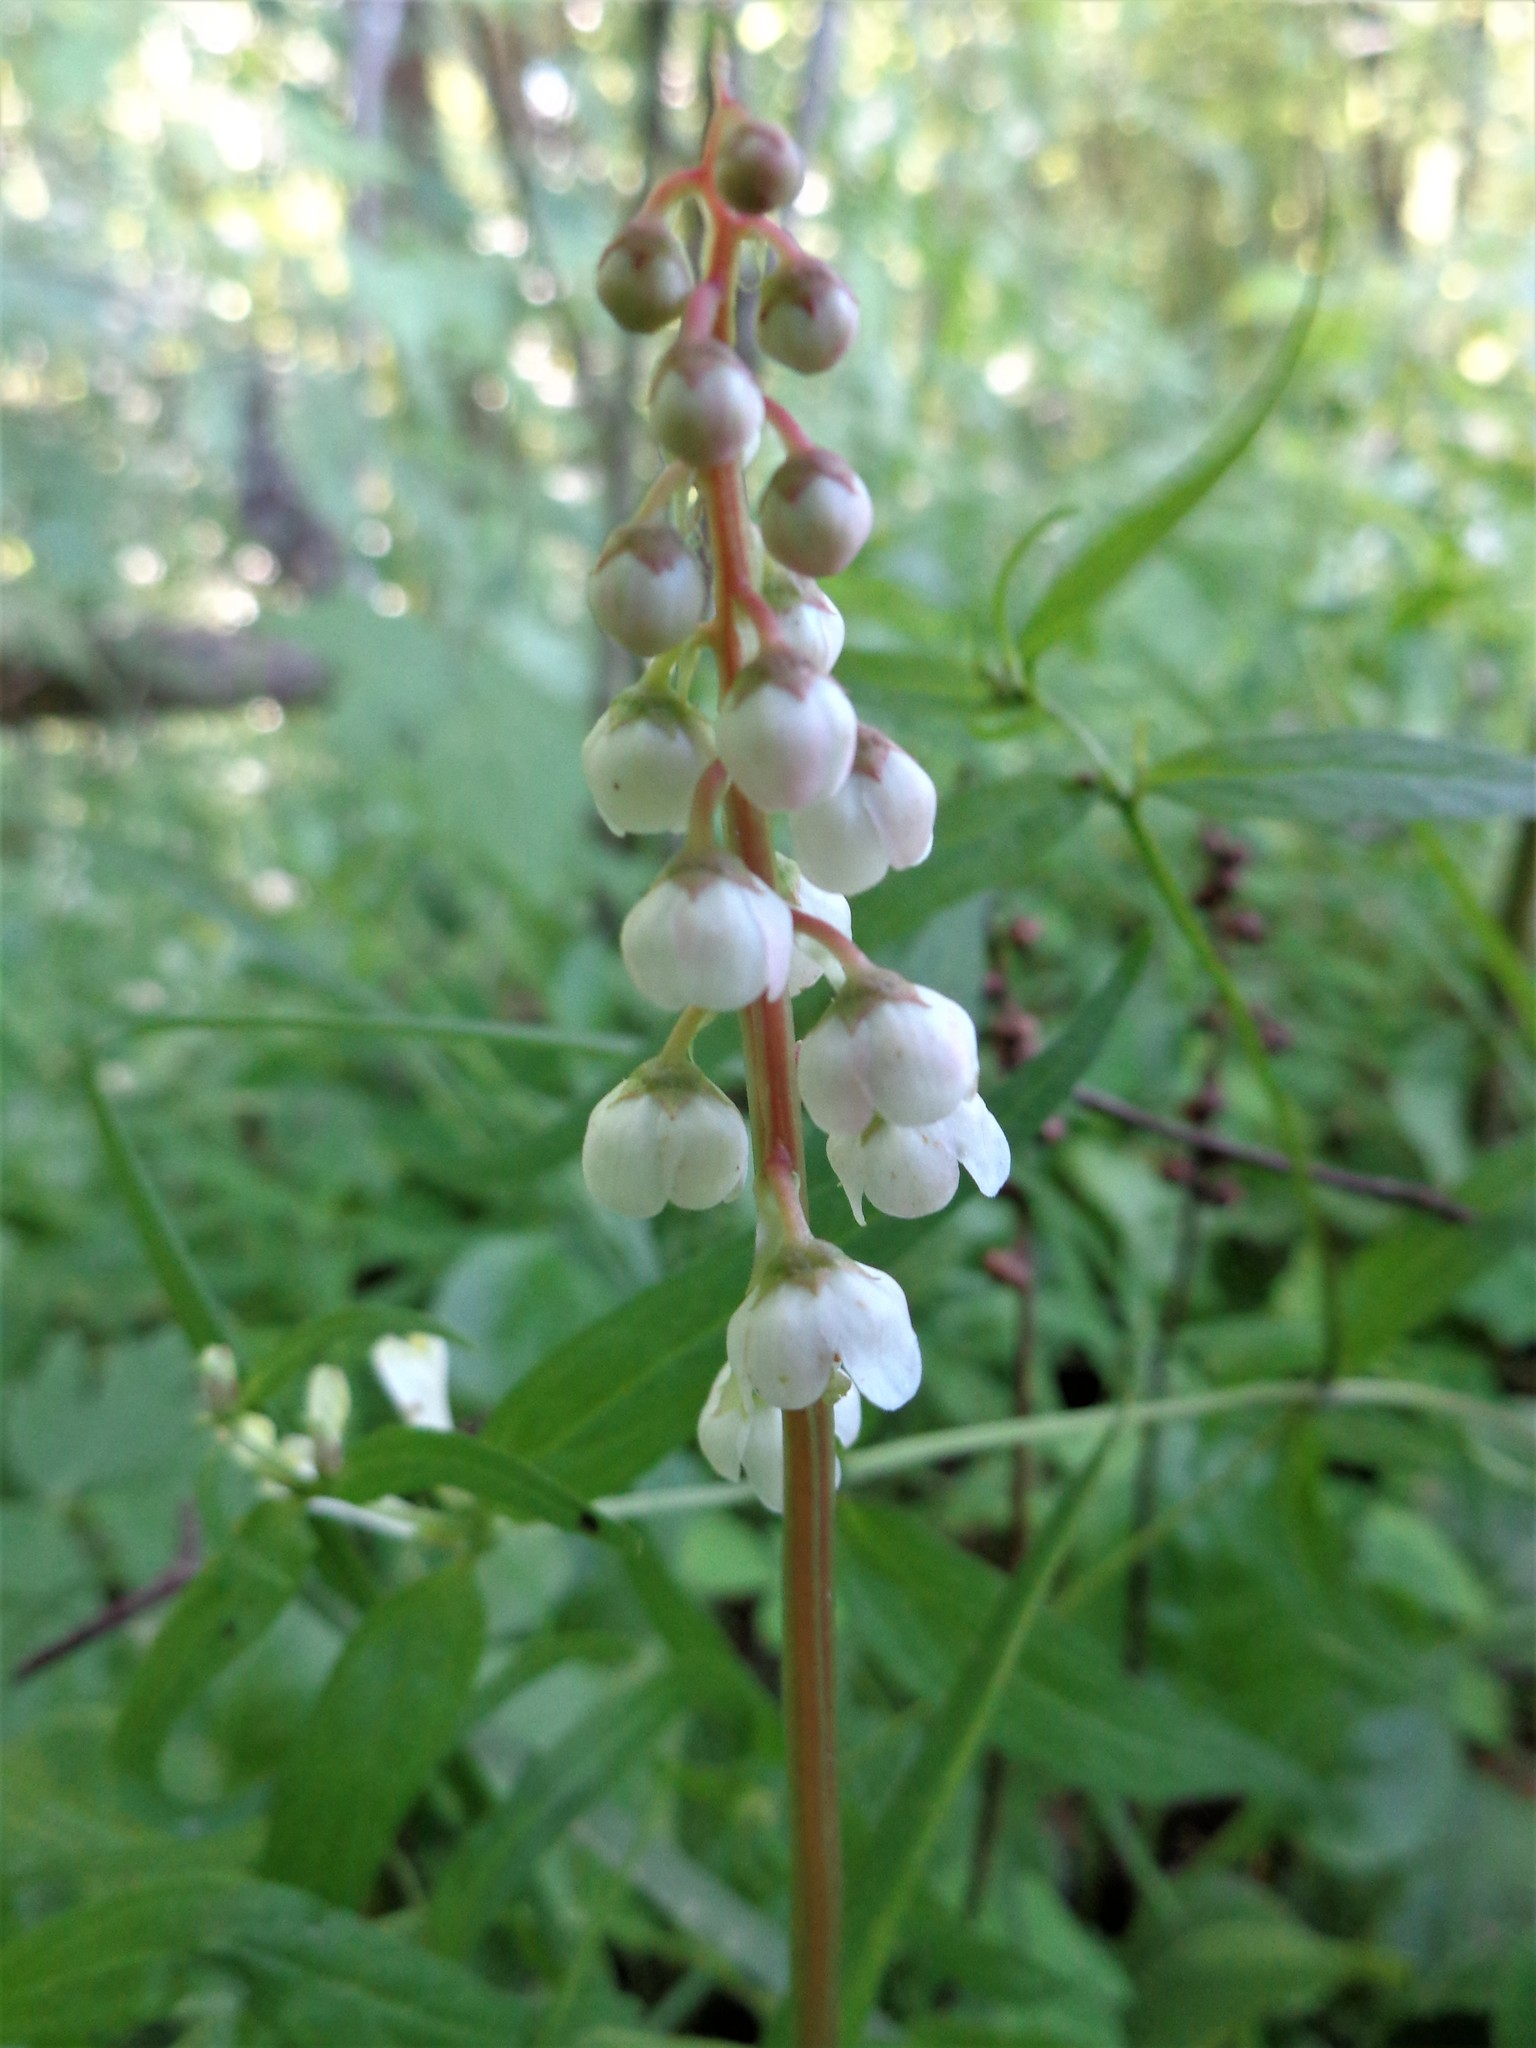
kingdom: Plantae
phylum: Tracheophyta
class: Magnoliopsida
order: Ericales
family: Ericaceae
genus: Pyrola
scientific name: Pyrola minor
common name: Common wintergreen
